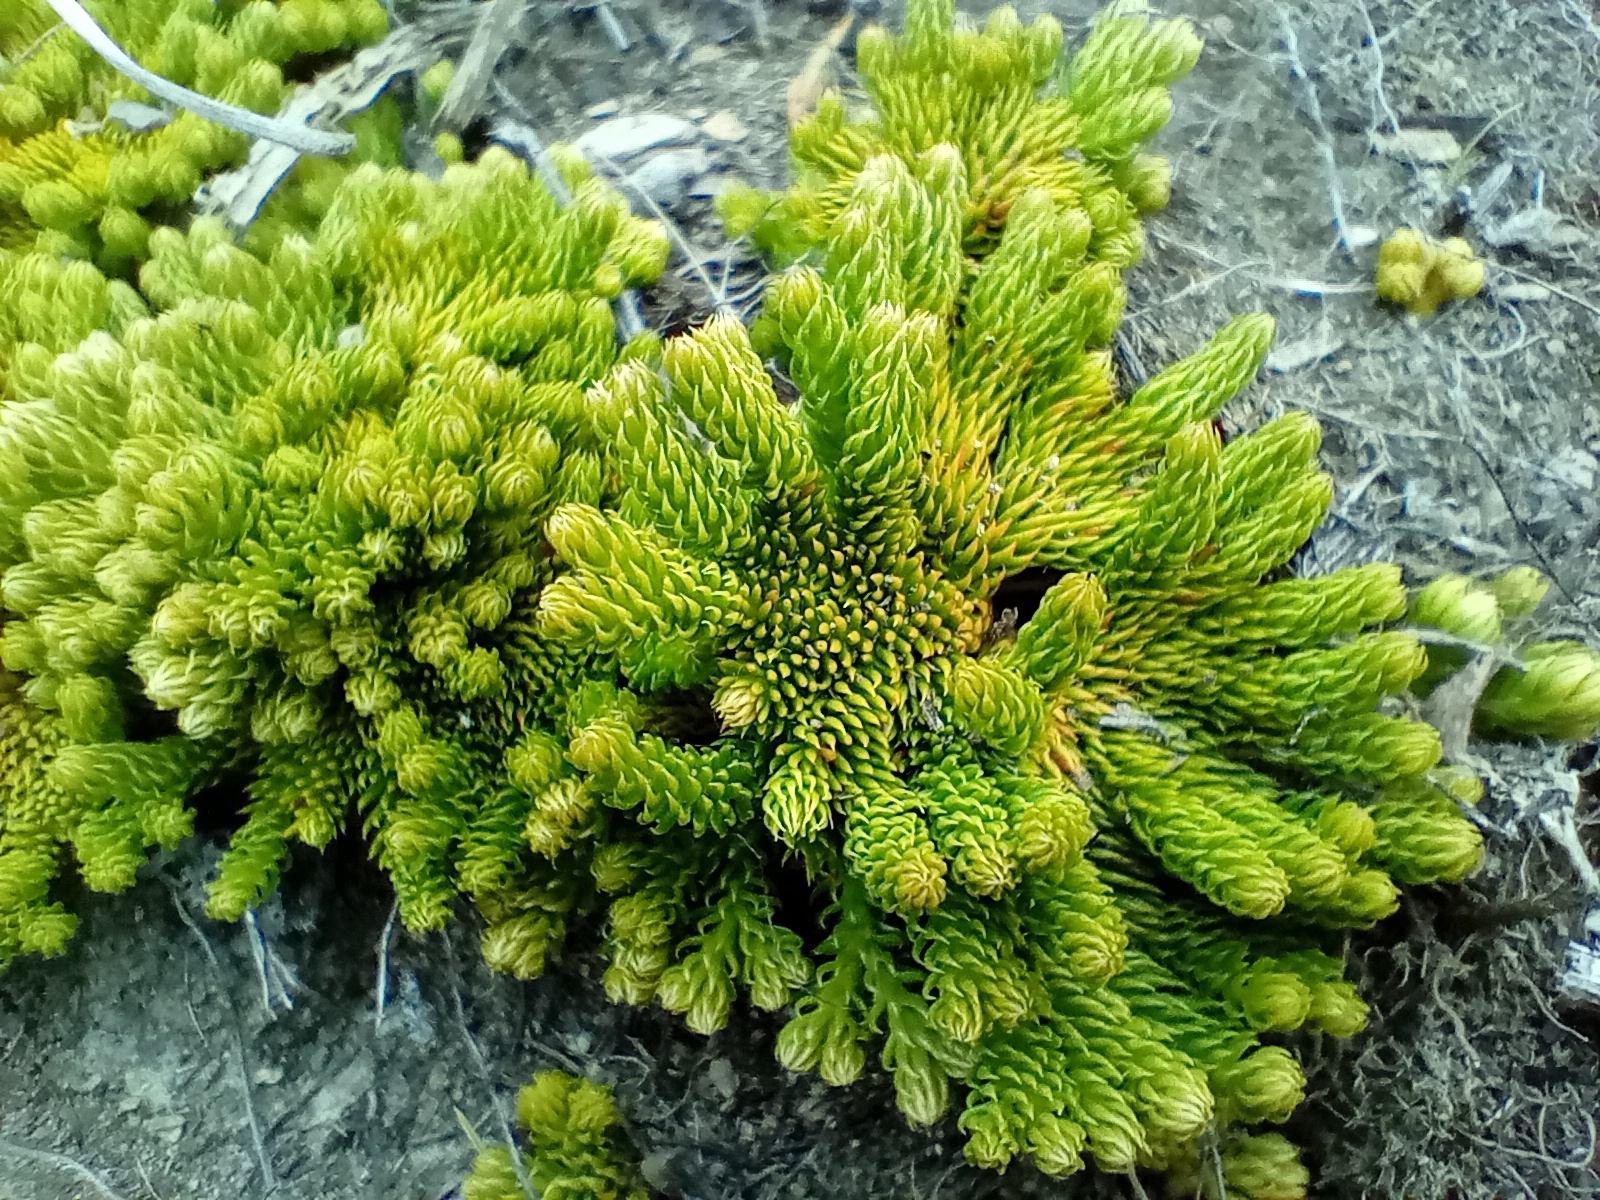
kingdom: Plantae
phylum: Tracheophyta
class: Lycopodiopsida
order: Lycopodiales
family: Lycopodiaceae
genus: Austrolycopodium
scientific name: Austrolycopodium fastigiatum
